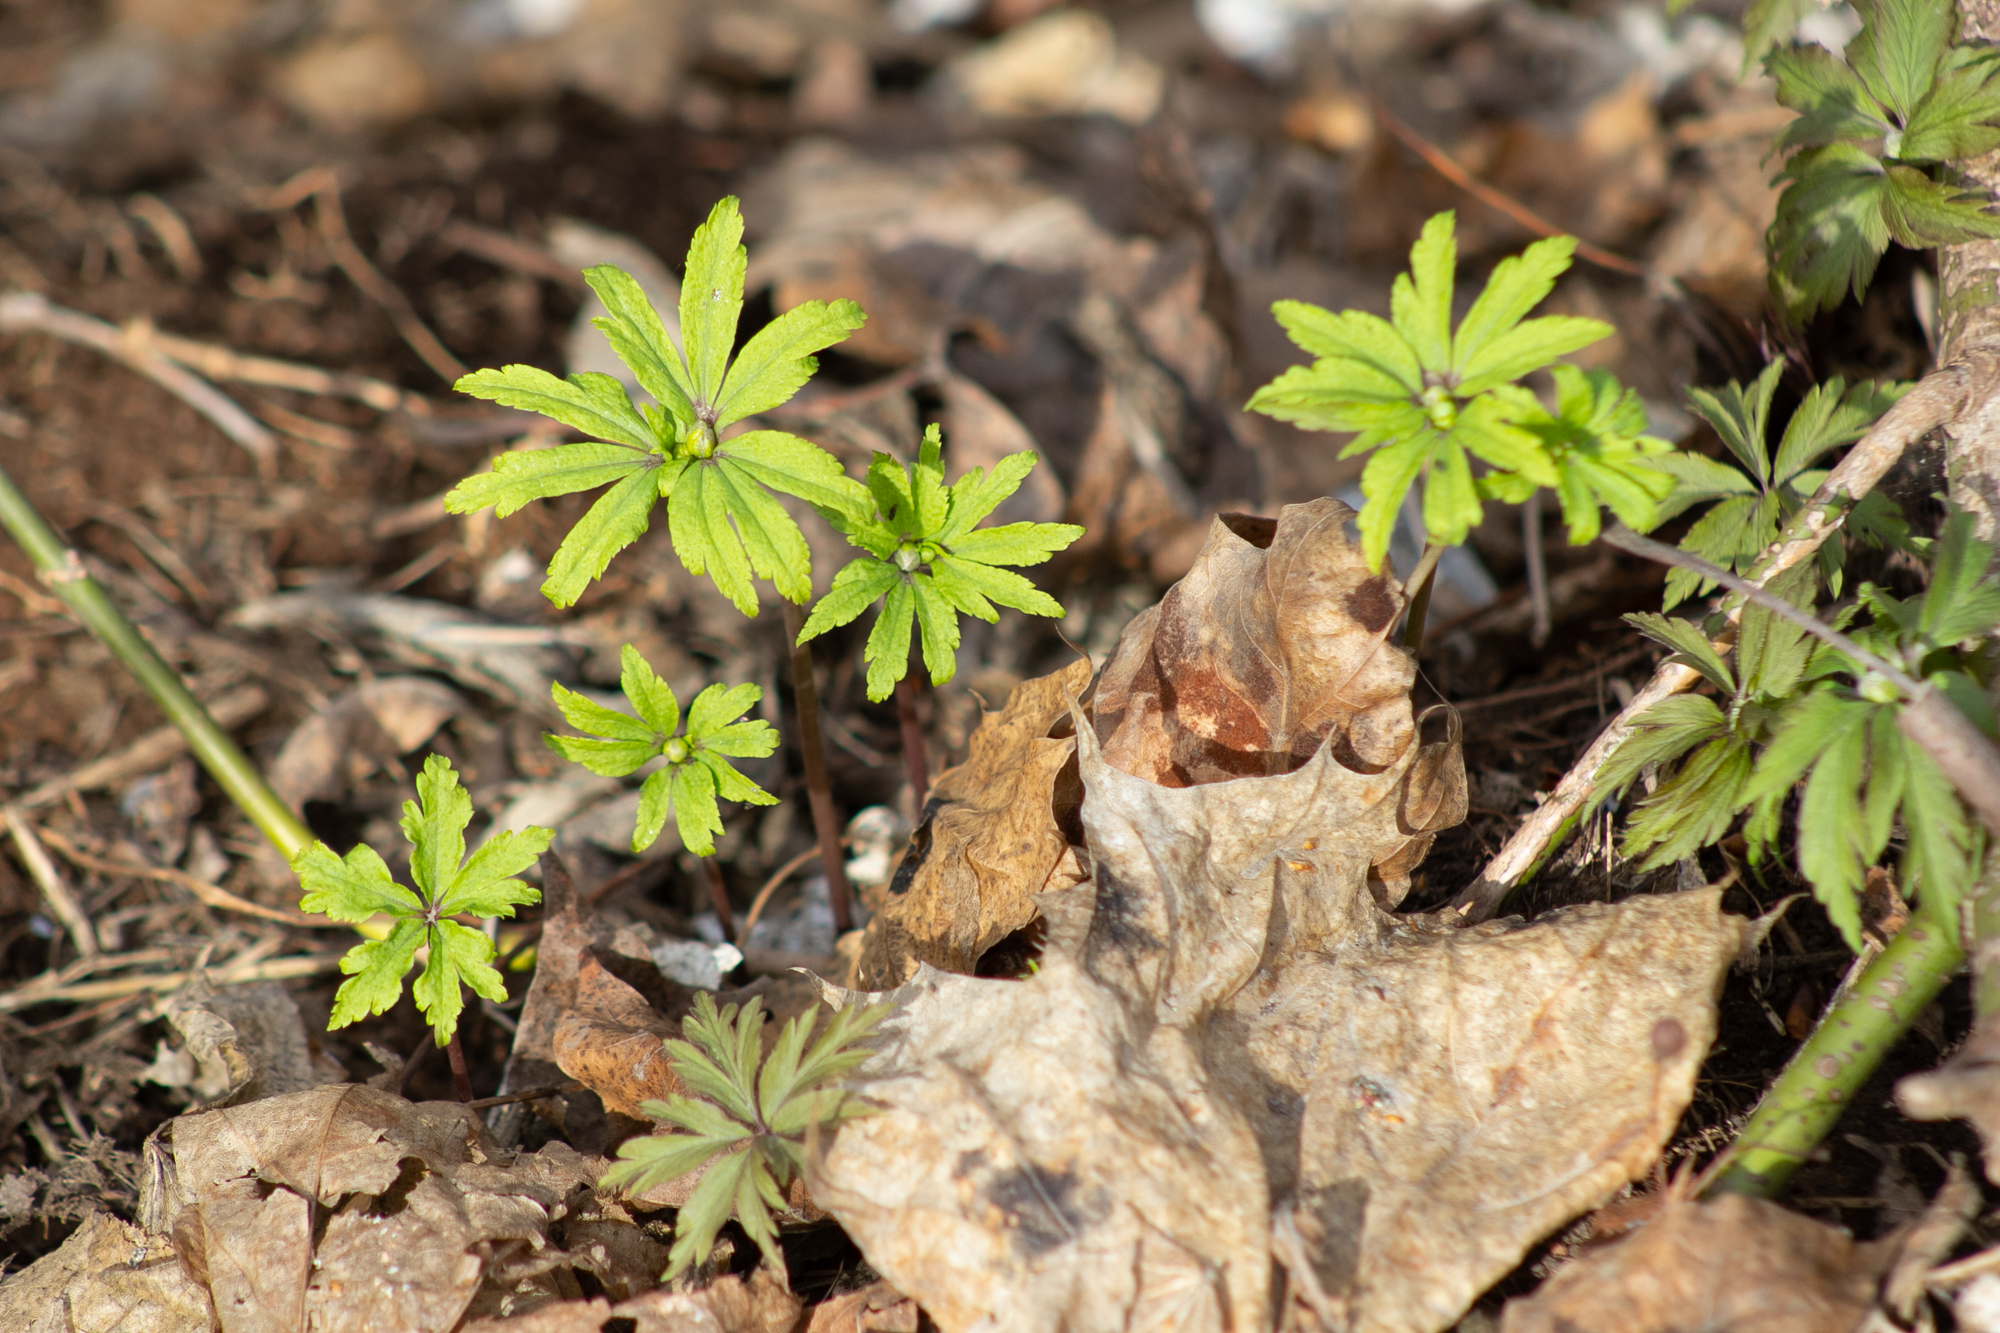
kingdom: Plantae
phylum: Tracheophyta
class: Magnoliopsida
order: Ranunculales
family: Ranunculaceae
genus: Anemone
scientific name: Anemone ranunculoides
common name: Yellow anemone
